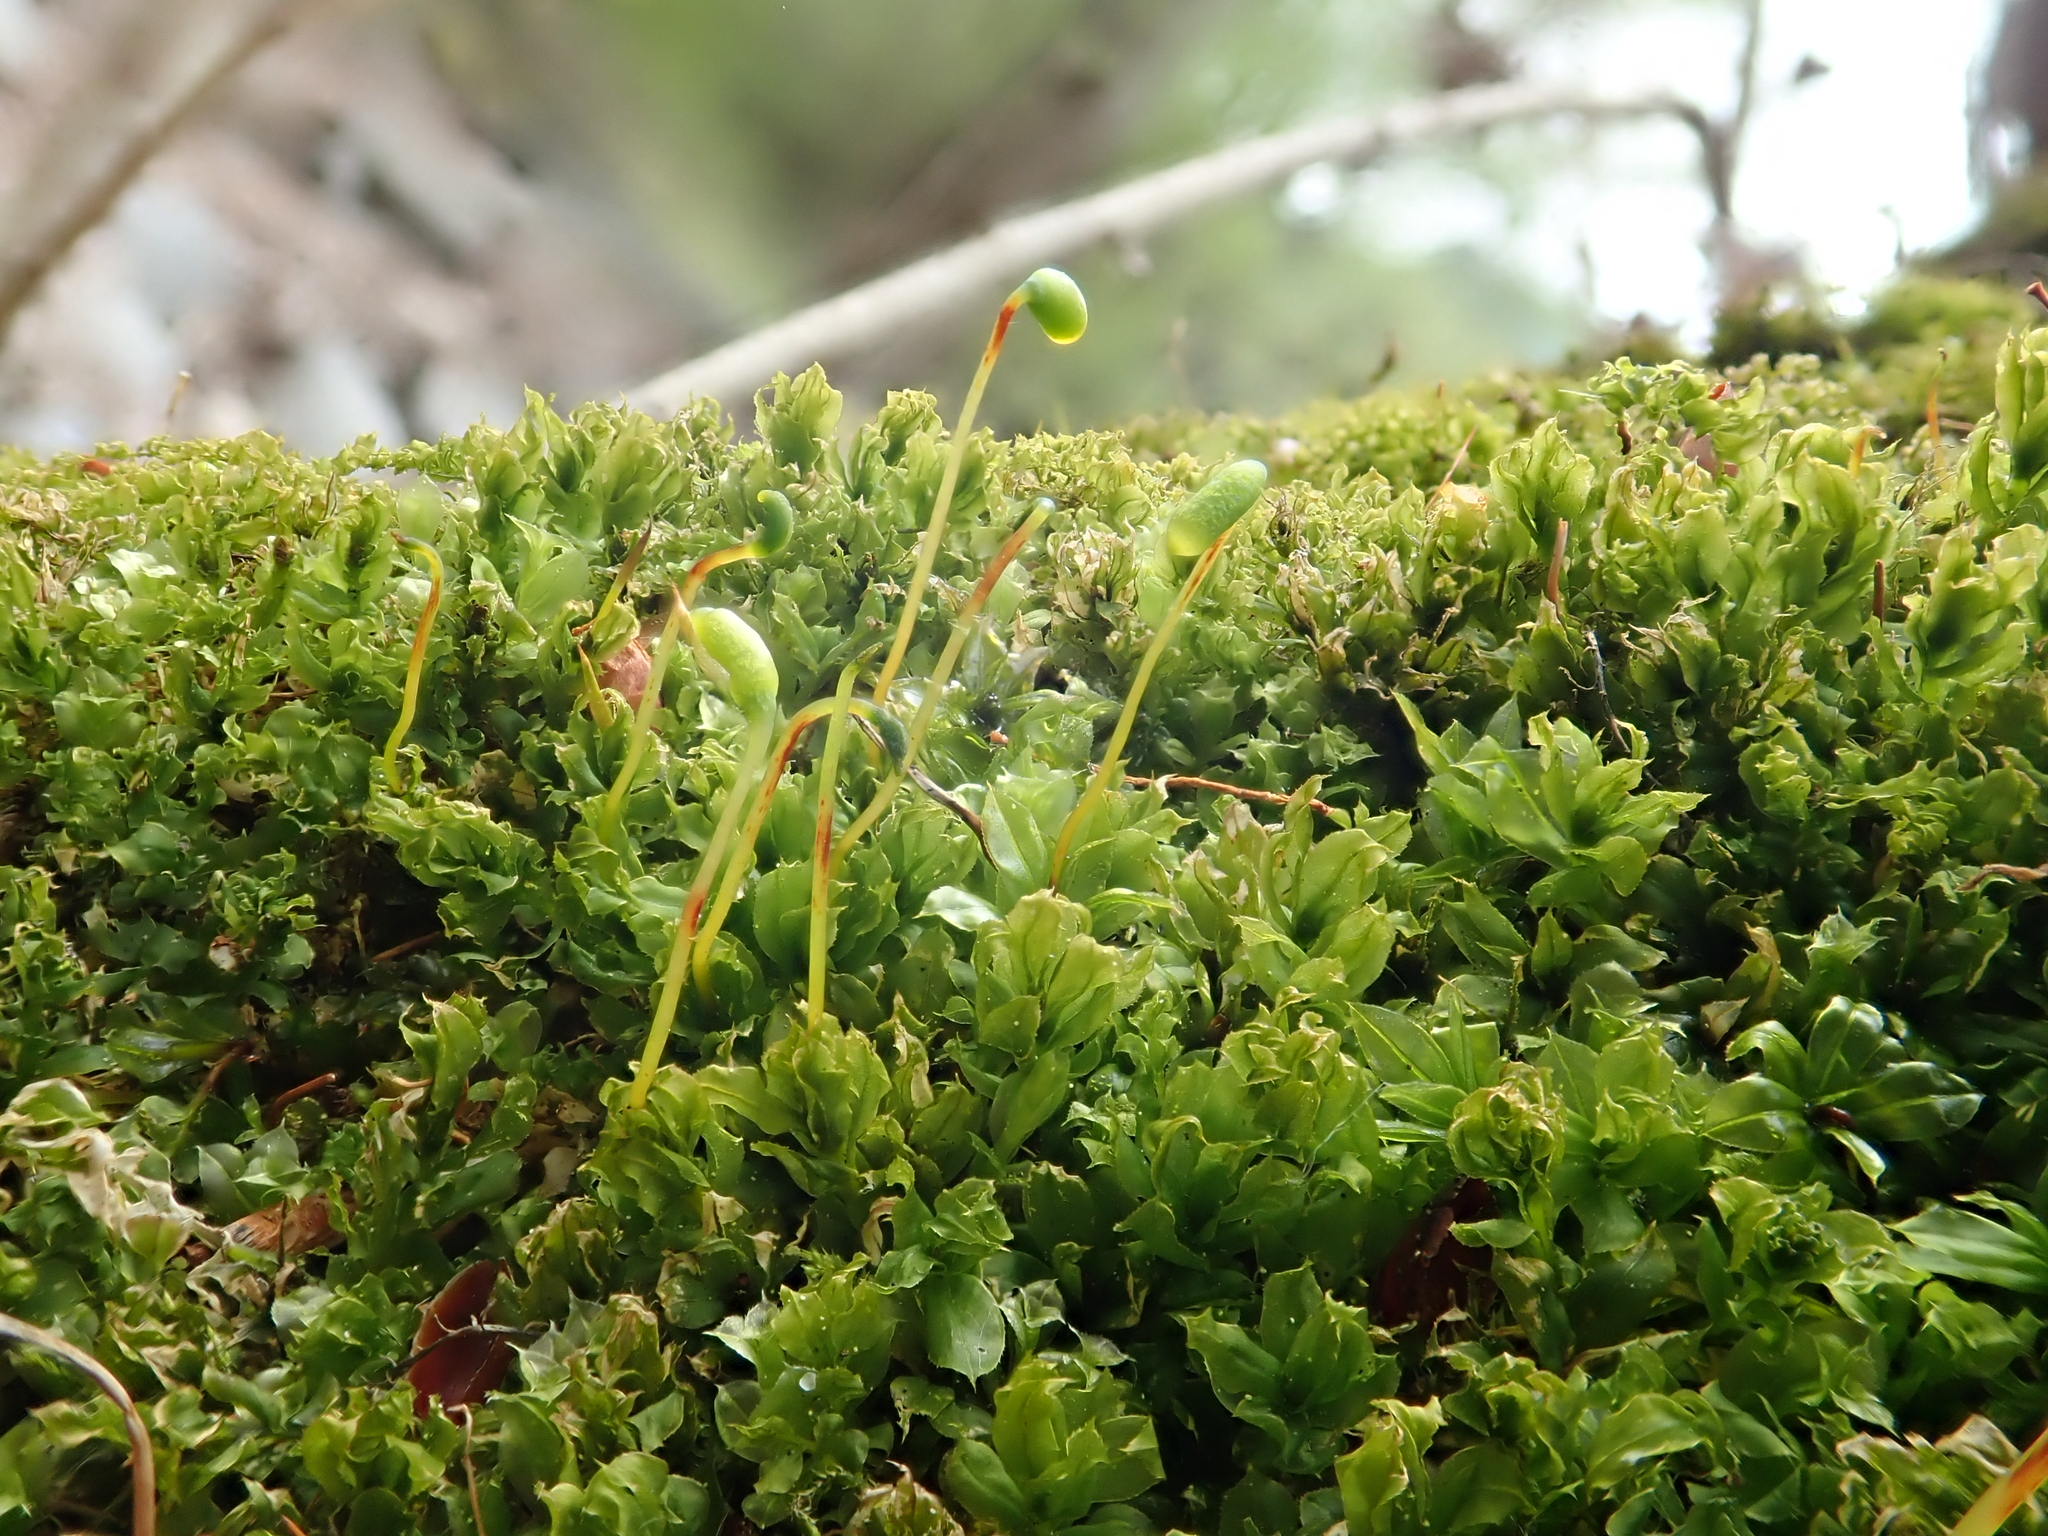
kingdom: Plantae
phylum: Bryophyta
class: Bryopsida
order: Bryales
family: Mniaceae
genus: Plagiomnium
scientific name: Plagiomnium cuspidatum
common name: Woodsy leafy moss
